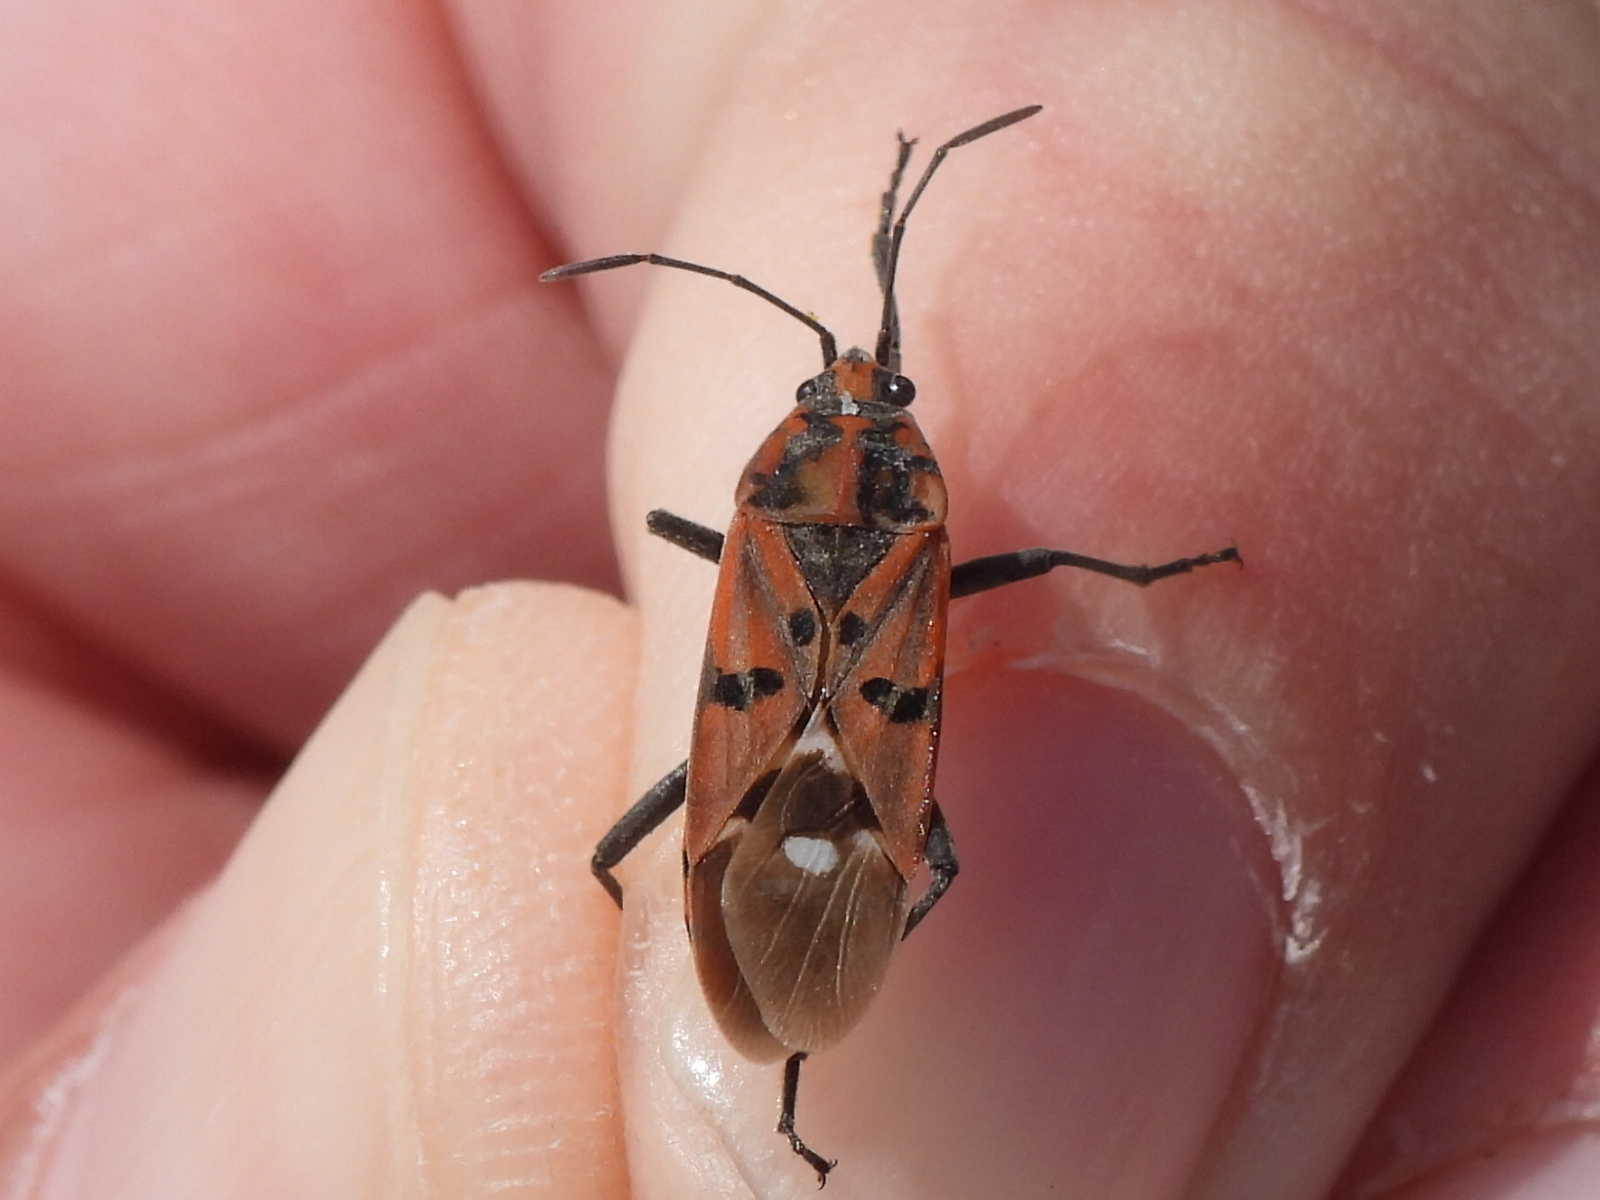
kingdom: Animalia
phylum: Arthropoda
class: Insecta
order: Hemiptera
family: Lygaeidae
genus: Spilostethus
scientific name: Spilostethus pandurus
